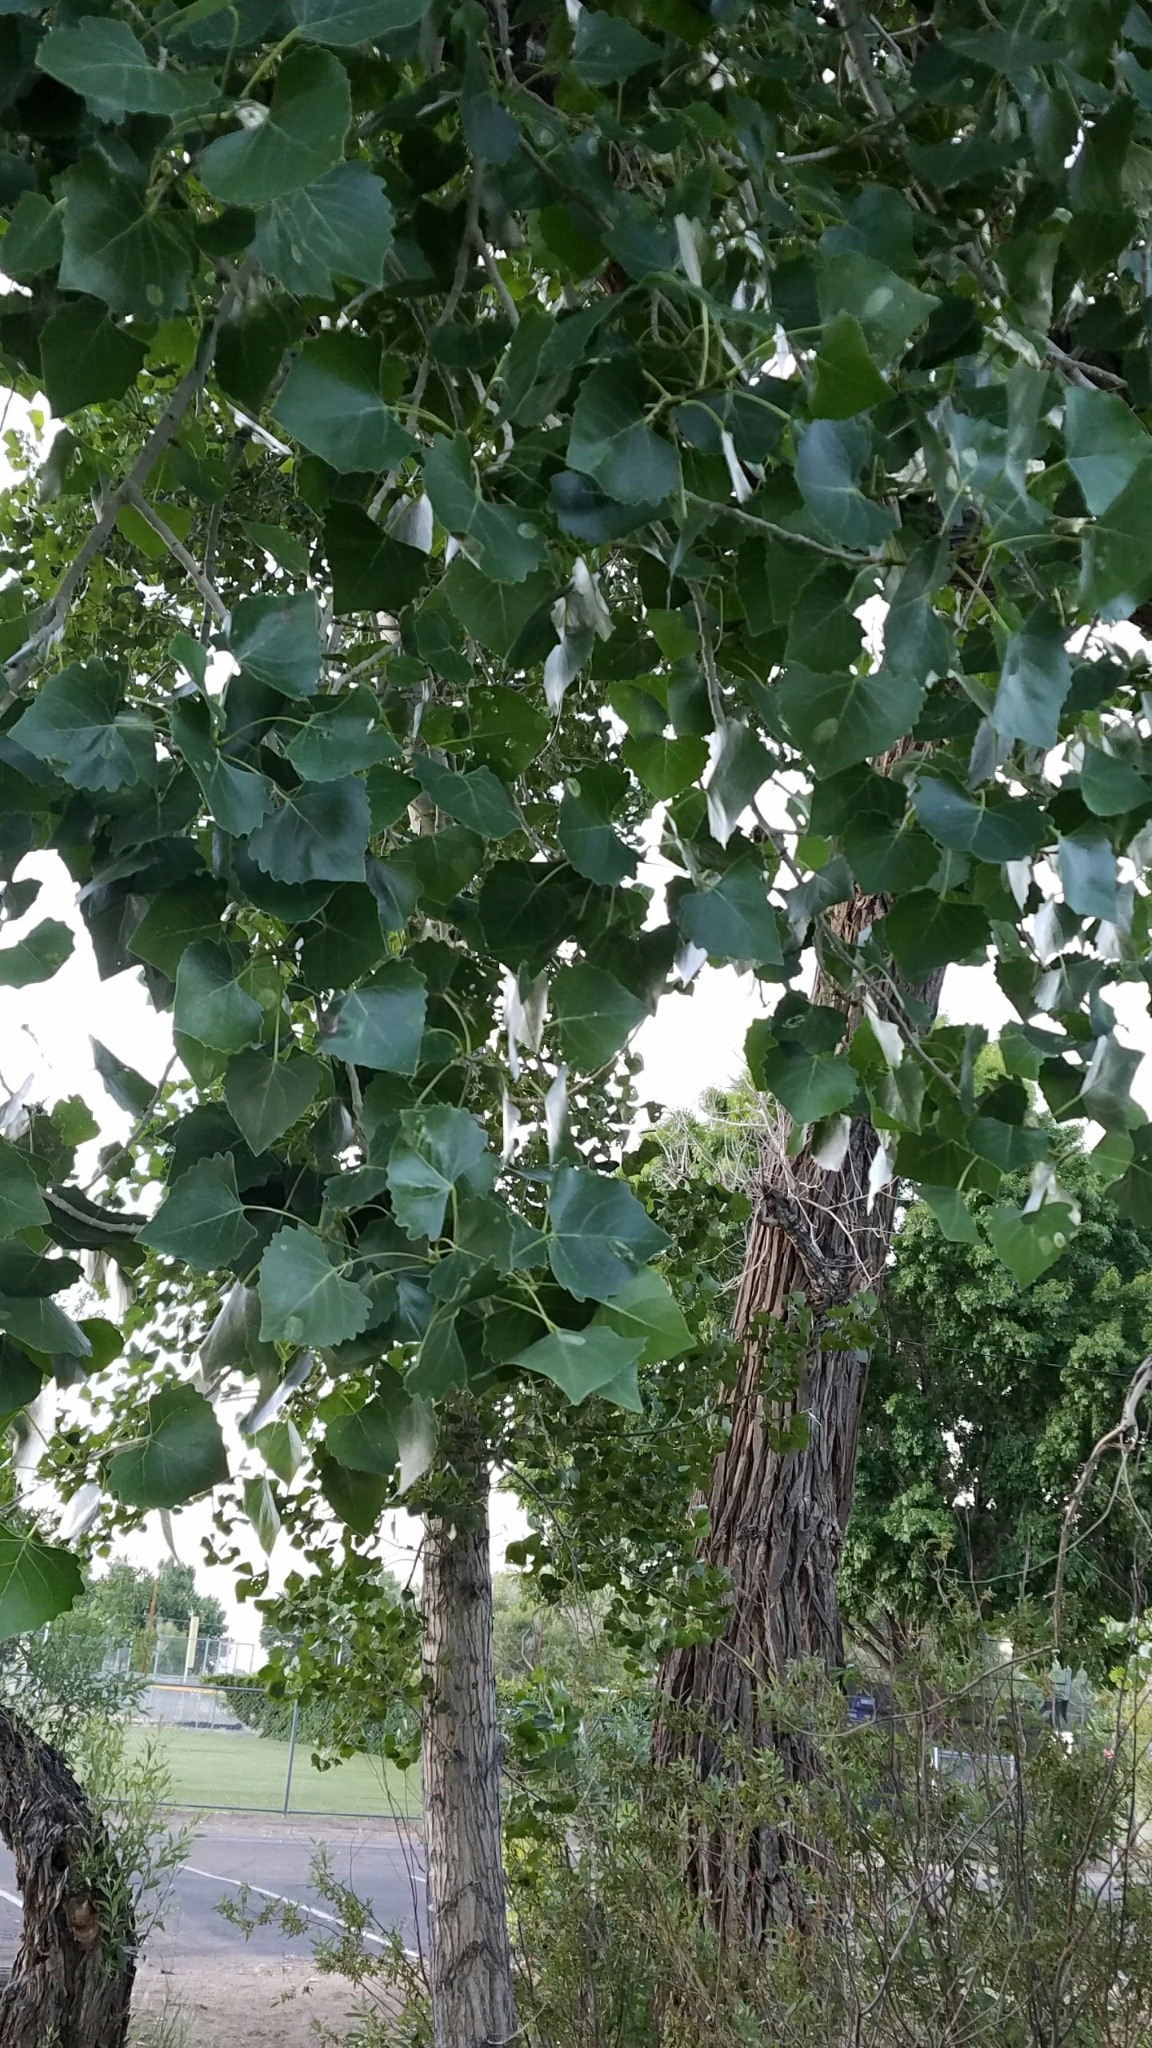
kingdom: Plantae
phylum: Tracheophyta
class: Magnoliopsida
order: Malpighiales
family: Salicaceae
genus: Populus
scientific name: Populus fremontii
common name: Fremont's cottonwood
